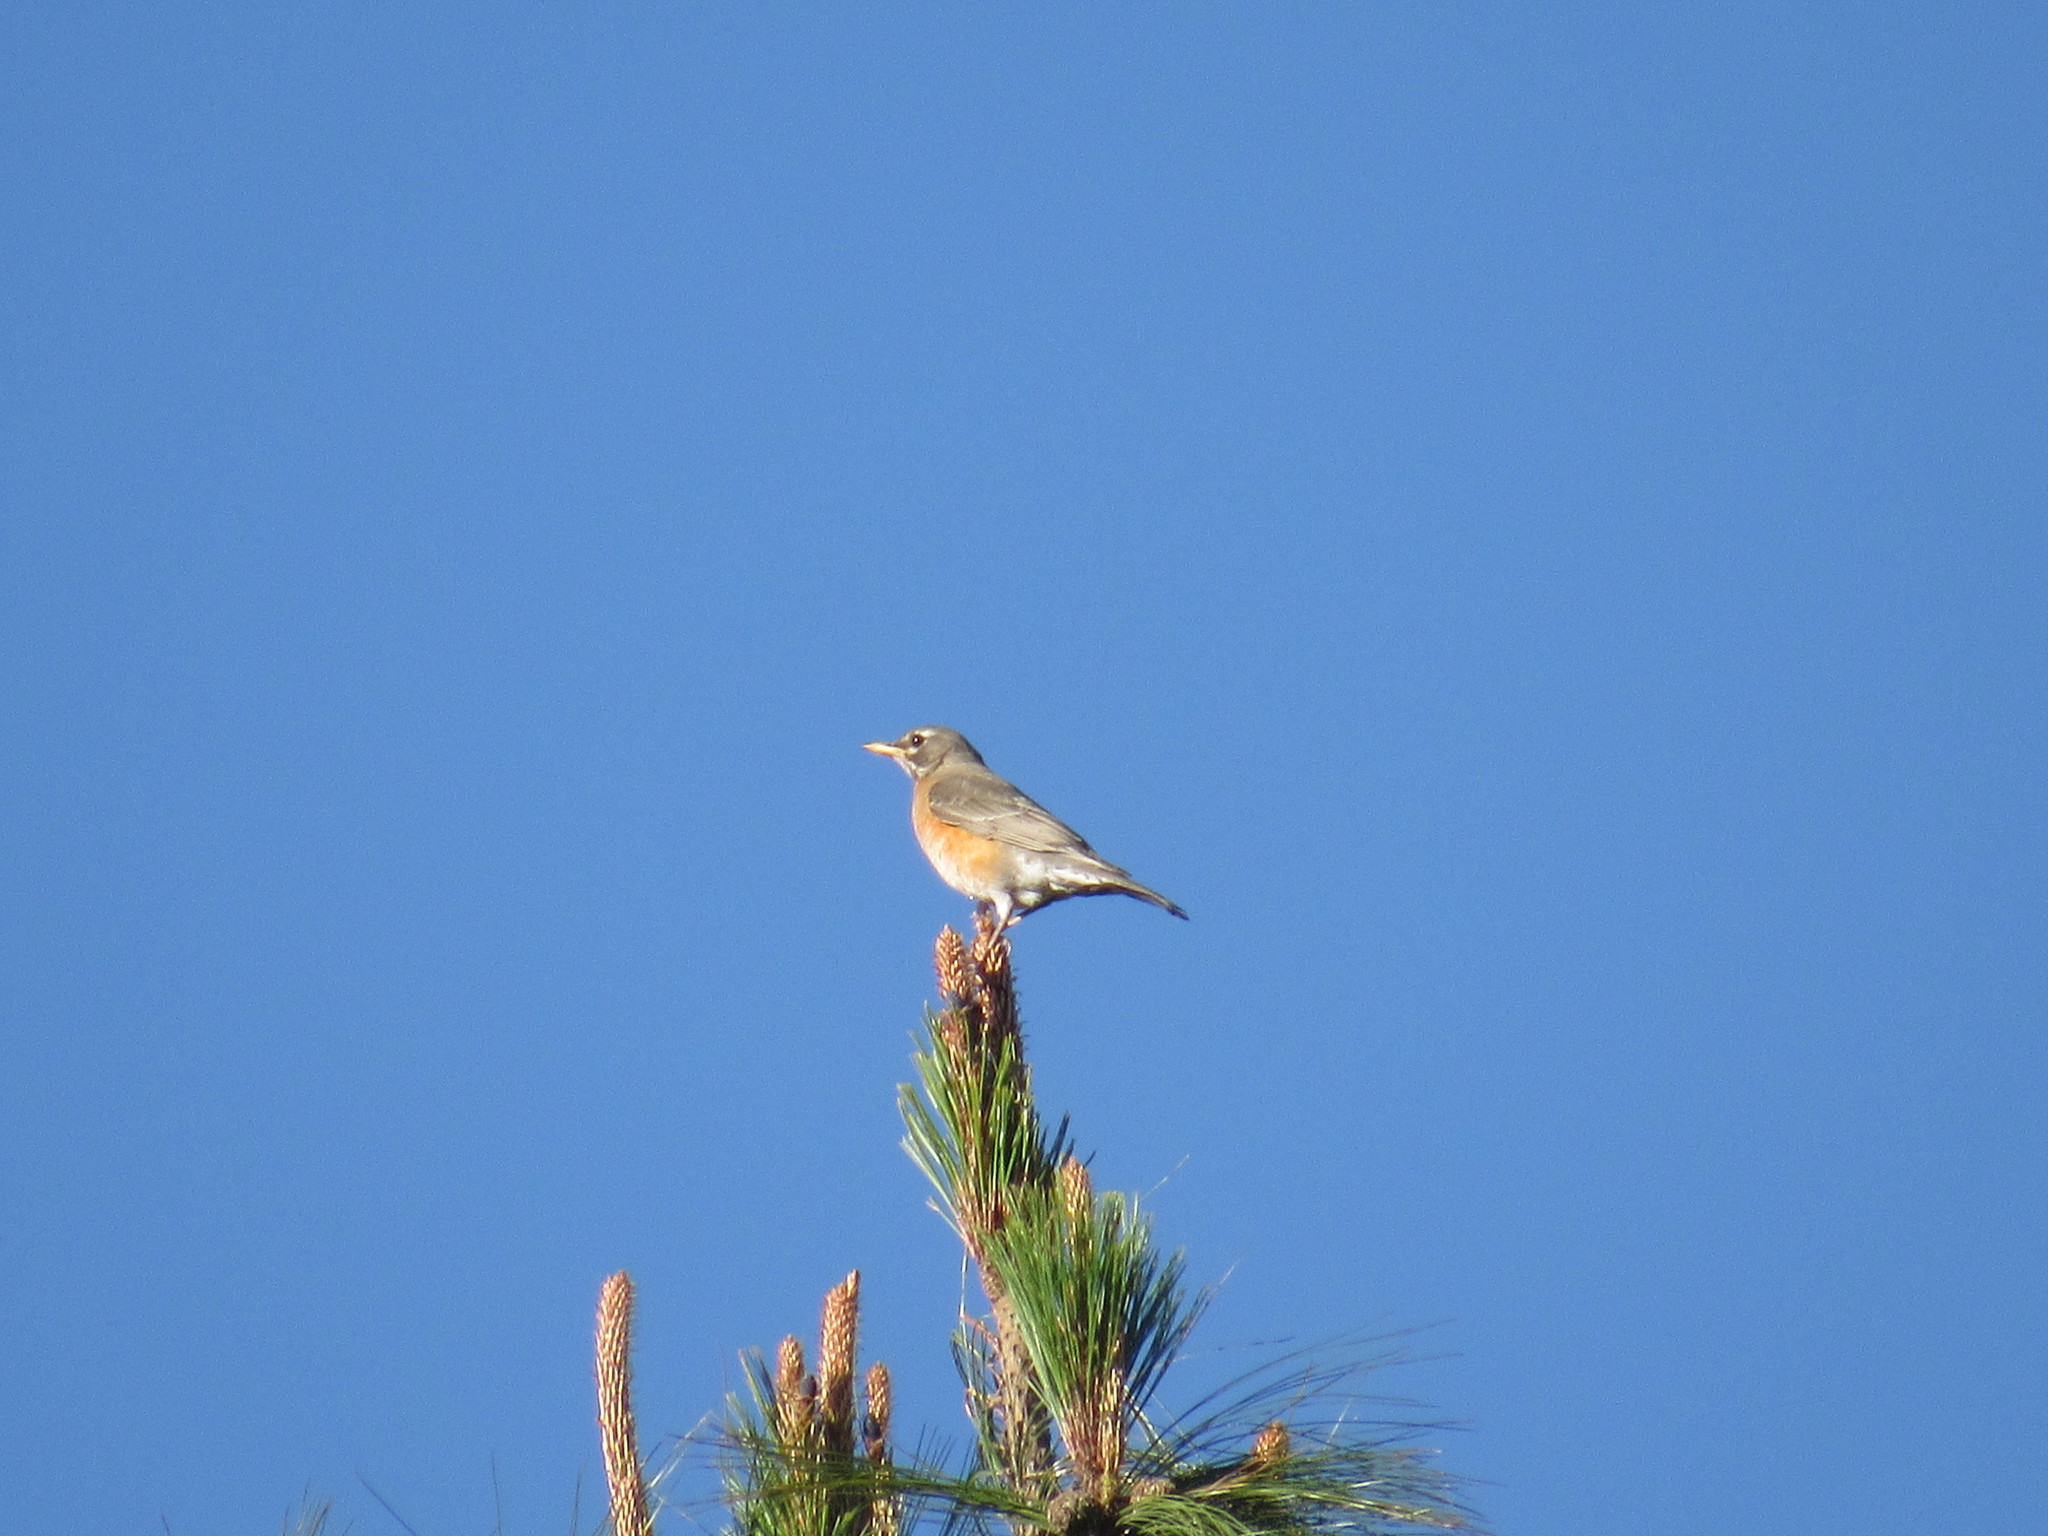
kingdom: Animalia
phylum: Chordata
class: Aves
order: Passeriformes
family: Turdidae
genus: Turdus
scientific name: Turdus migratorius
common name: American robin
